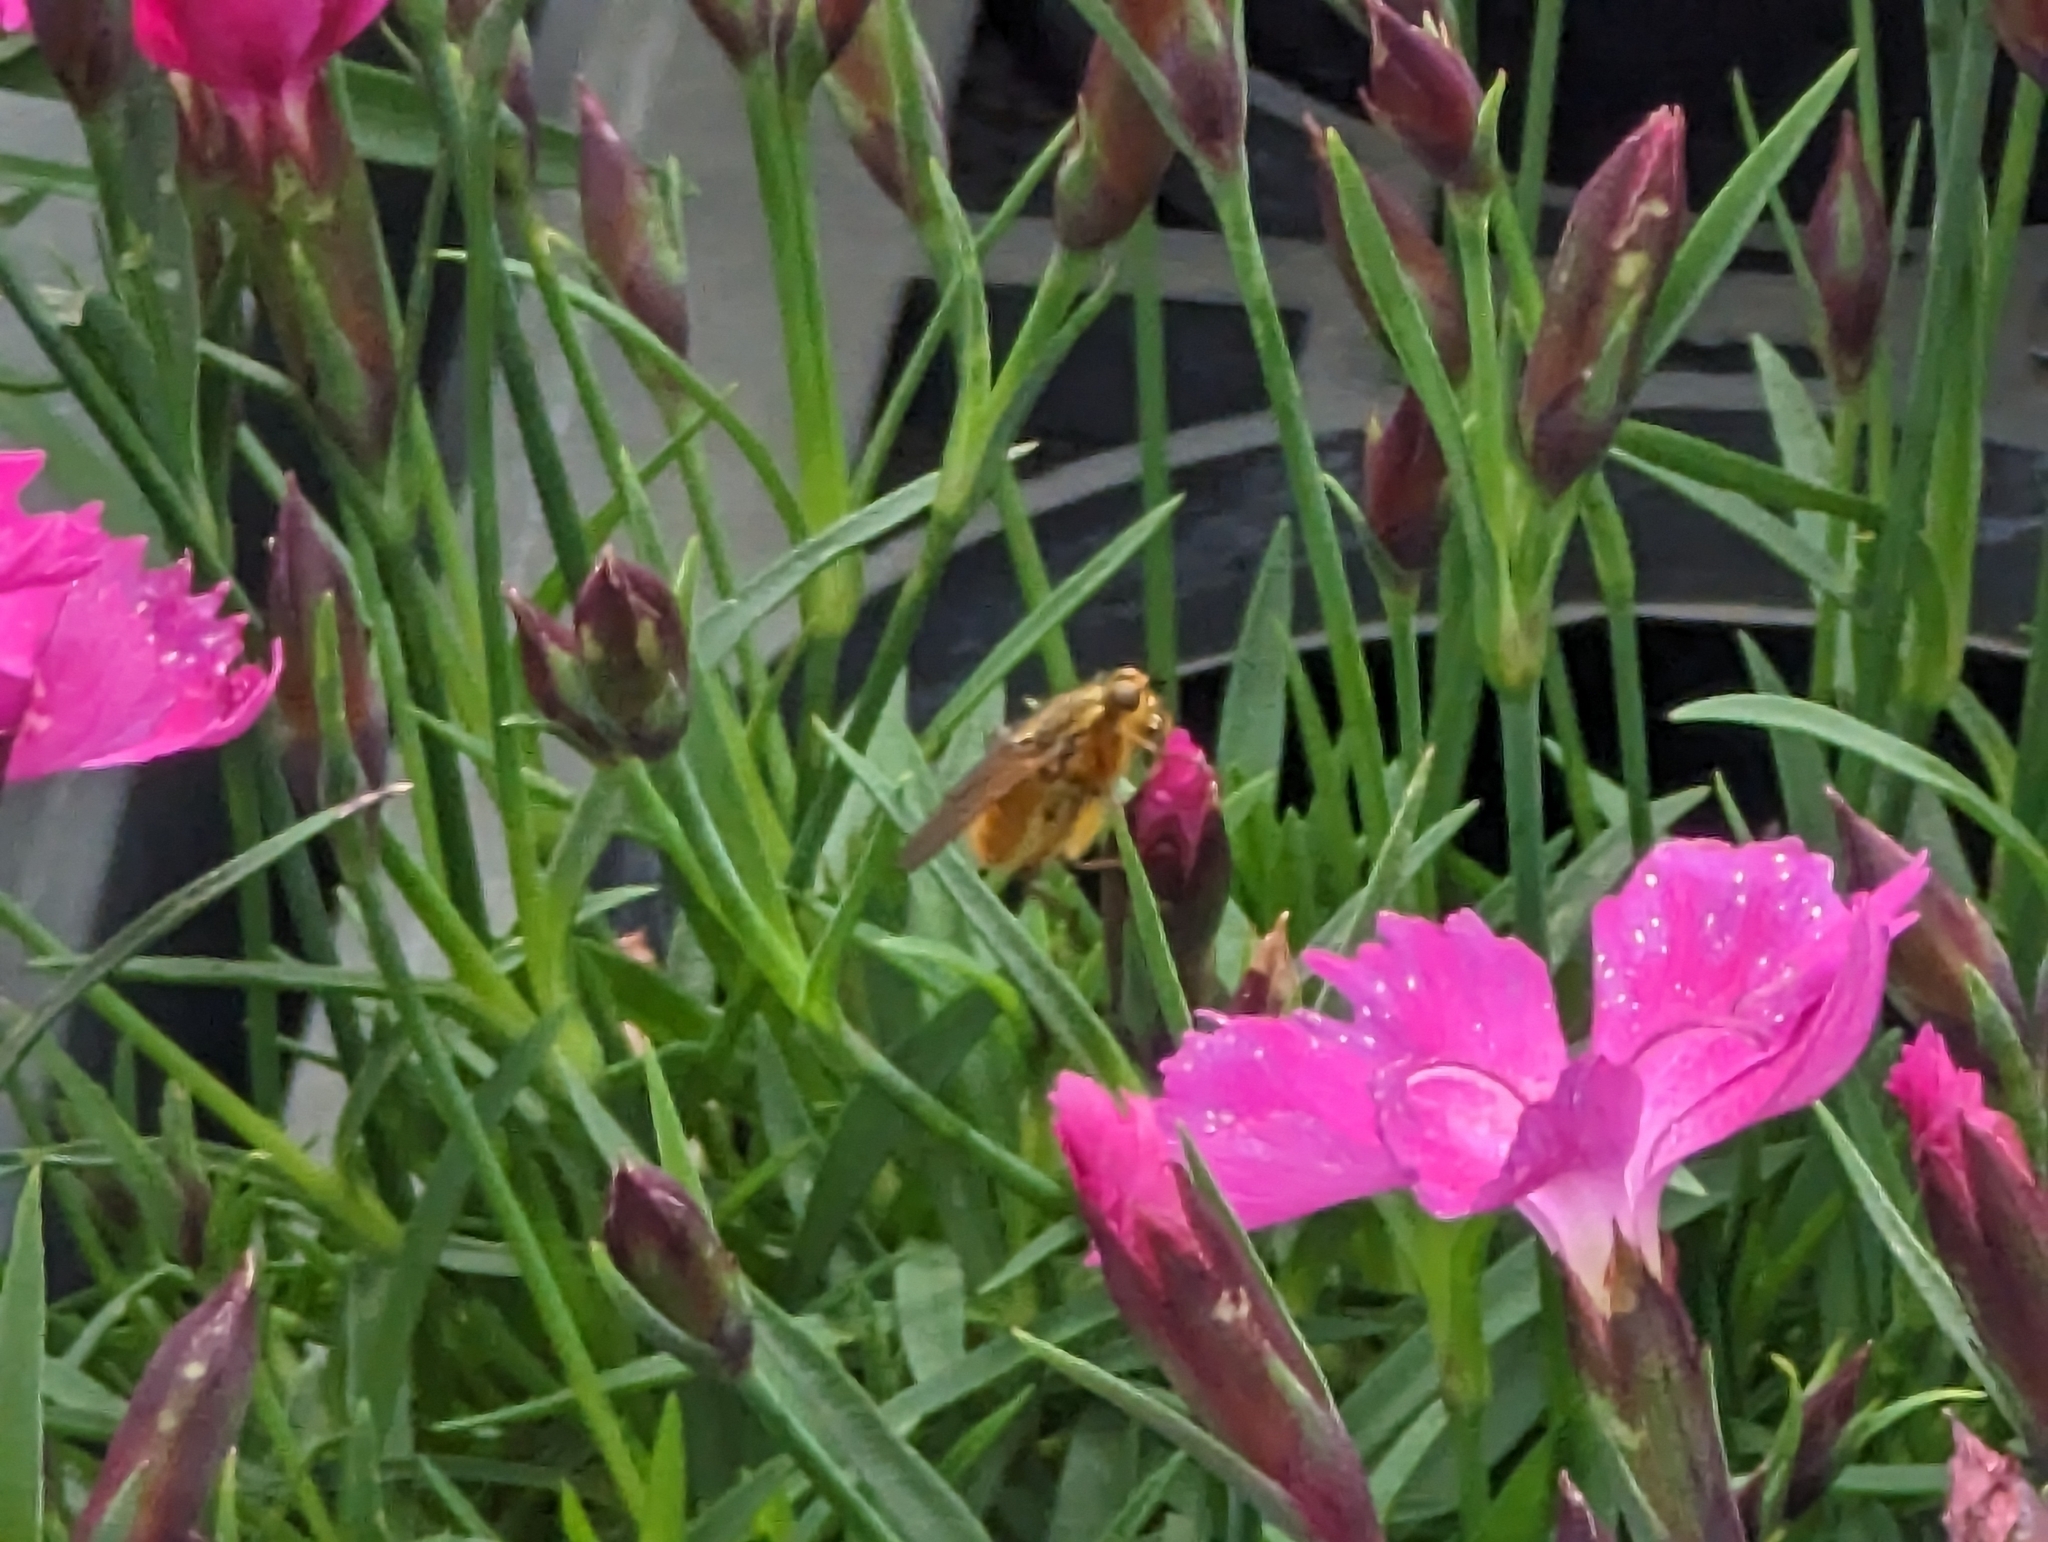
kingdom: Animalia
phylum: Arthropoda
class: Insecta
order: Diptera
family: Scathophagidae
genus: Scathophaga
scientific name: Scathophaga stercoraria
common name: Yellow dung fly
